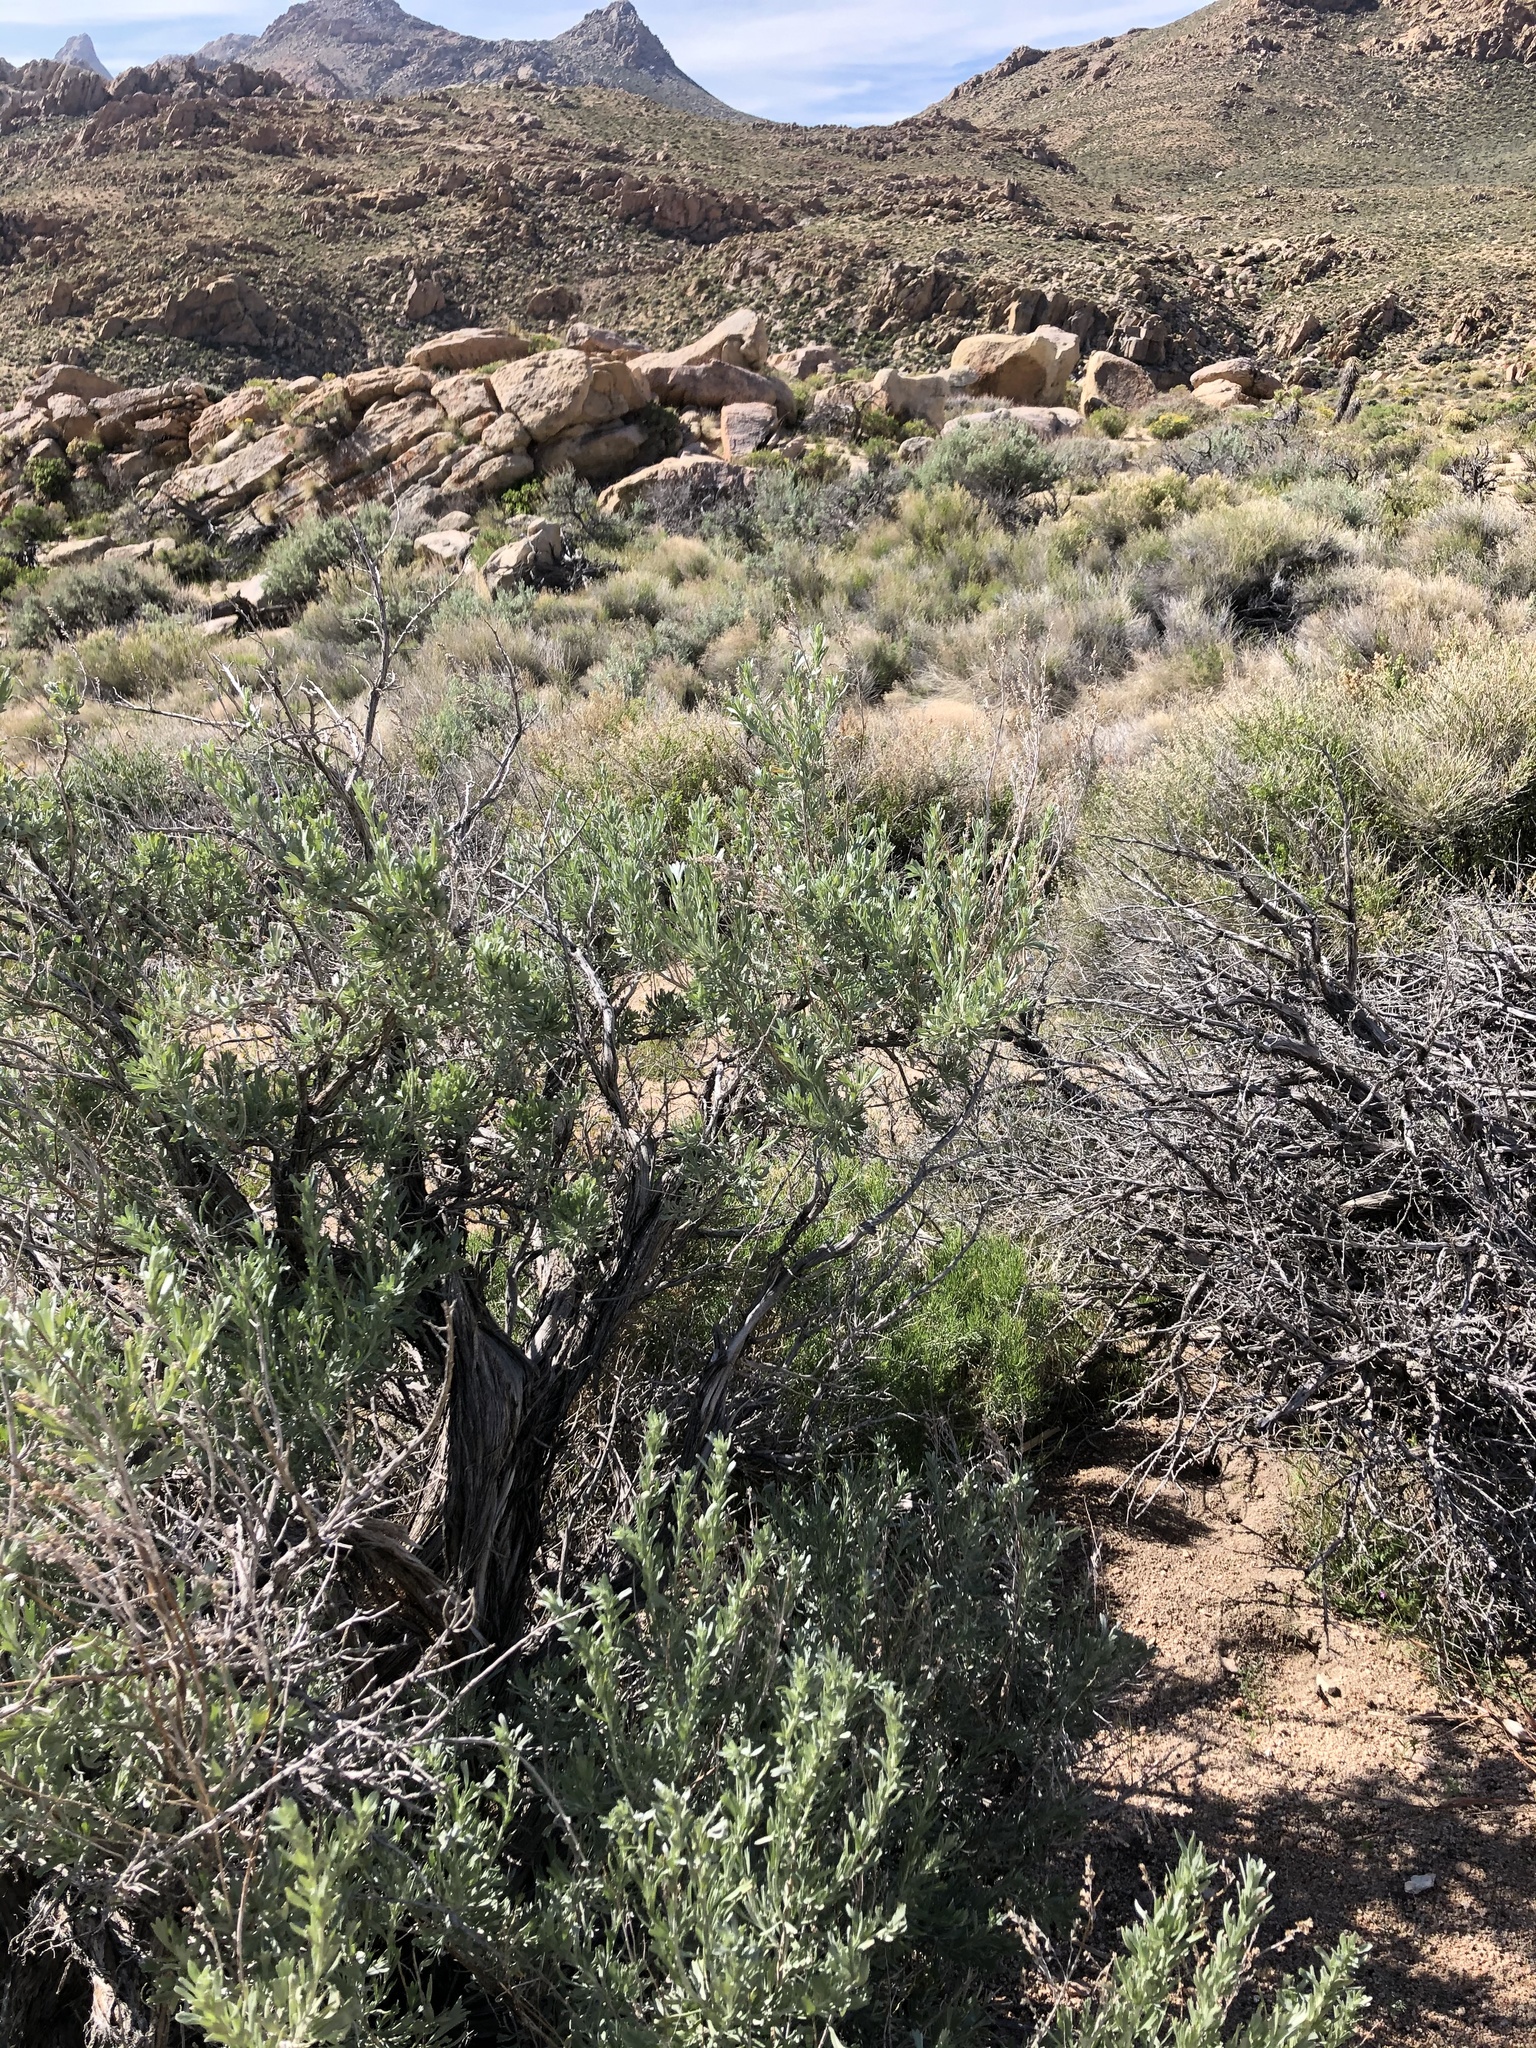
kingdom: Plantae
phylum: Tracheophyta
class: Magnoliopsida
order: Asterales
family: Asteraceae
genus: Artemisia
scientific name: Artemisia tridentata
